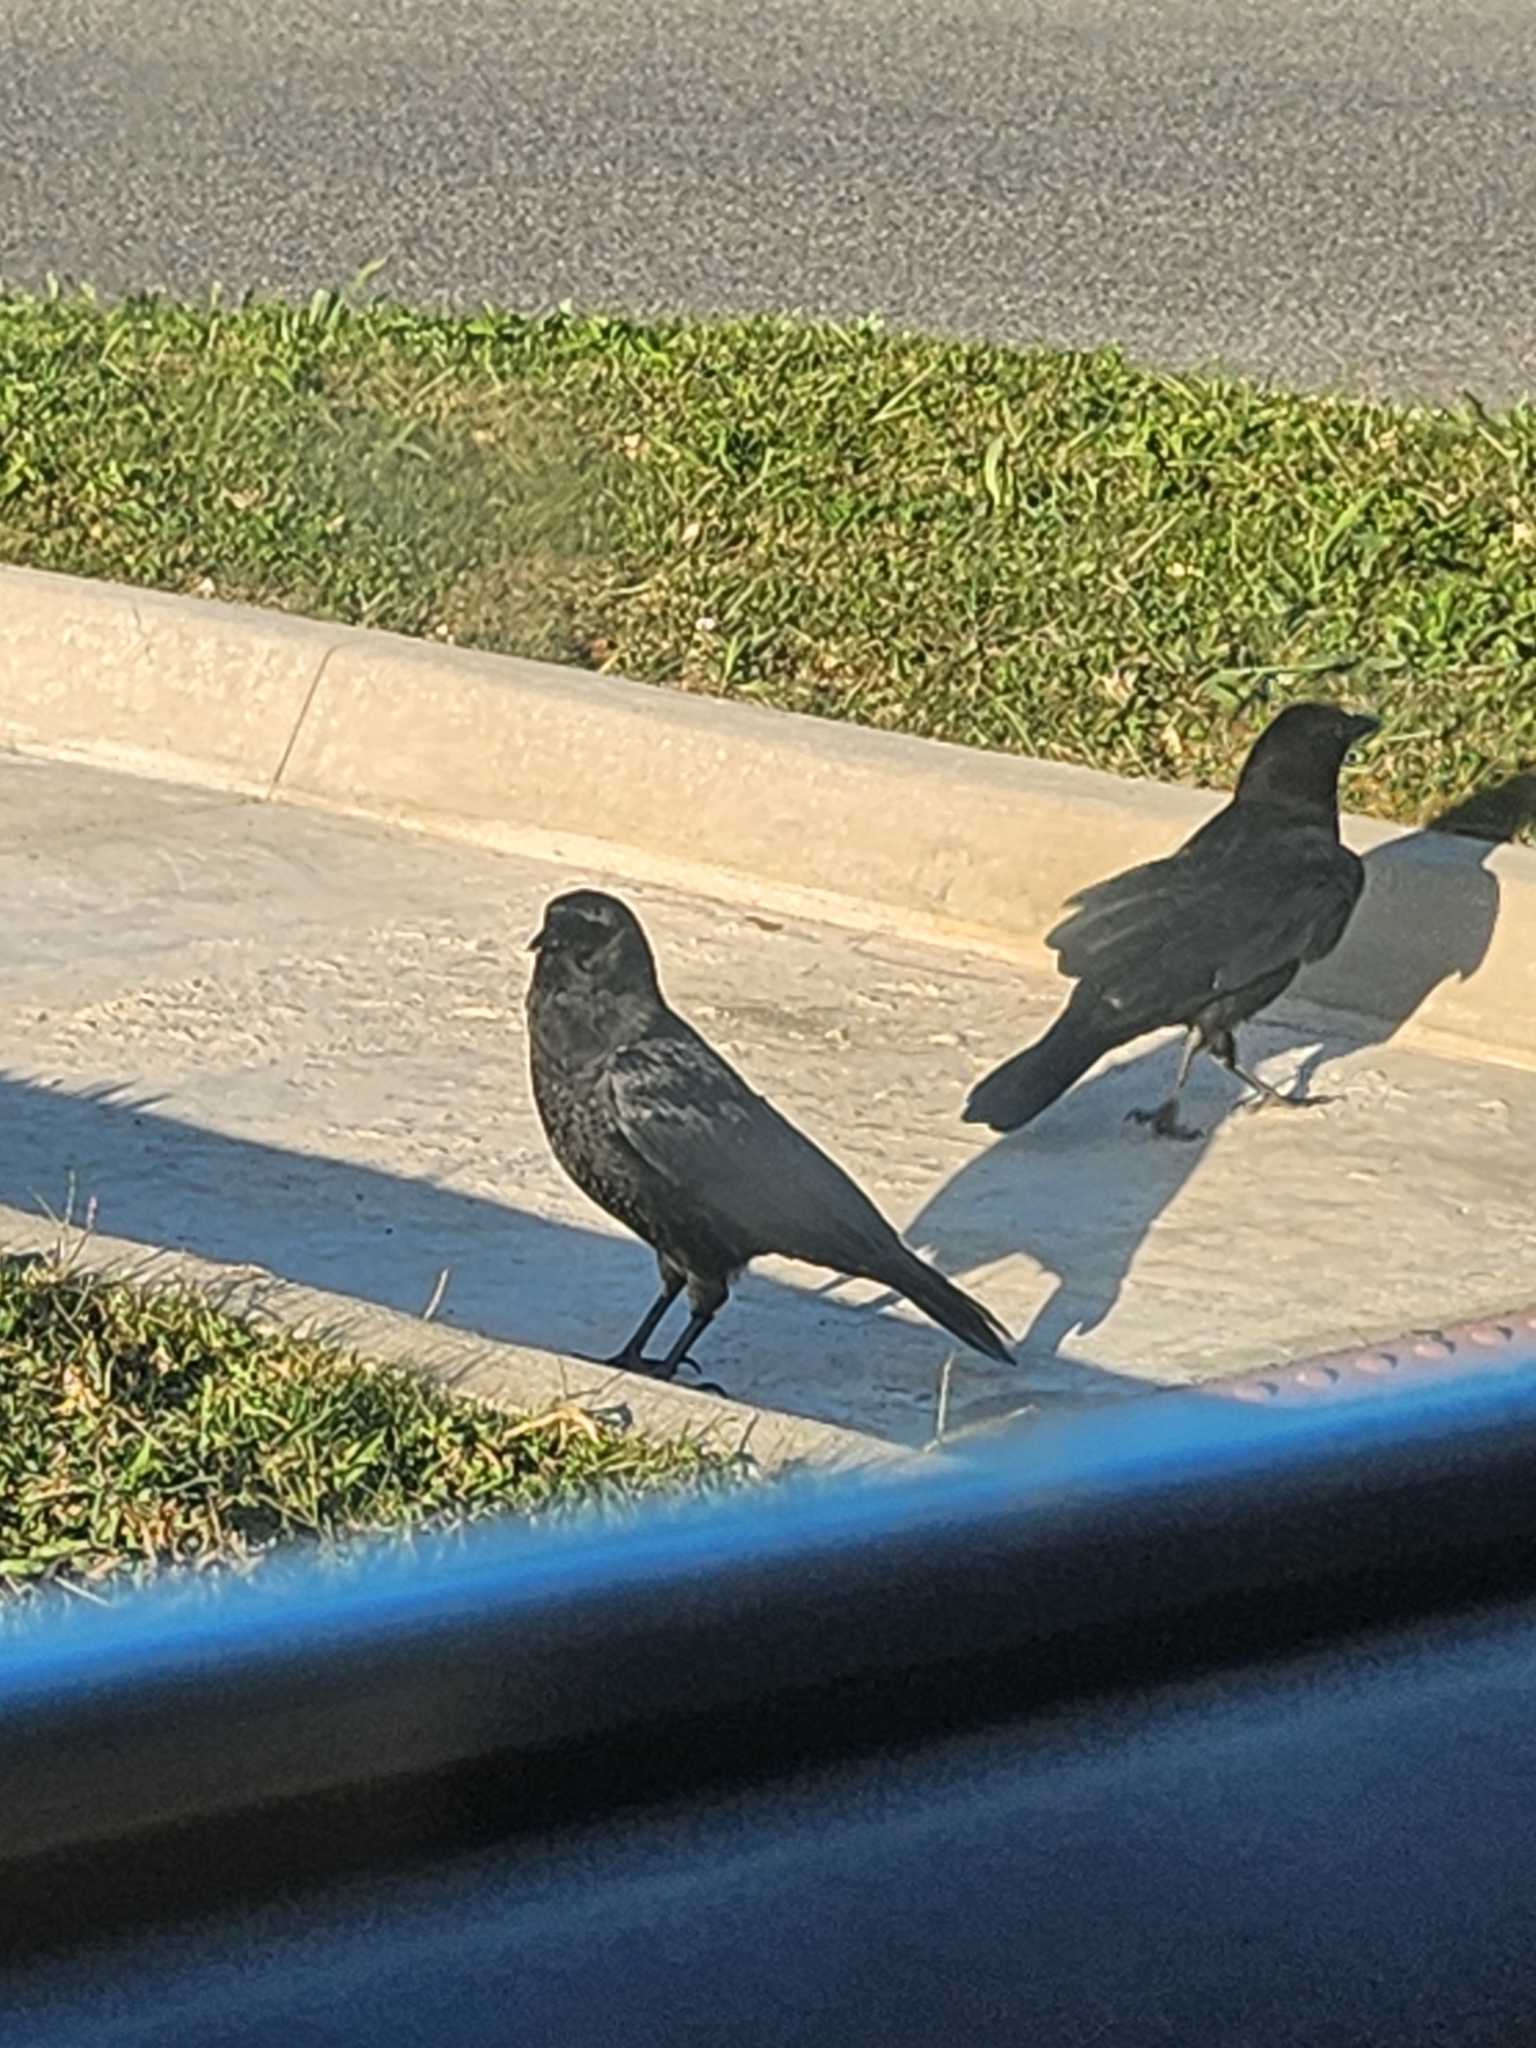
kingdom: Animalia
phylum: Chordata
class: Aves
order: Passeriformes
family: Corvidae
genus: Corvus
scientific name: Corvus brachyrhynchos
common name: American crow
